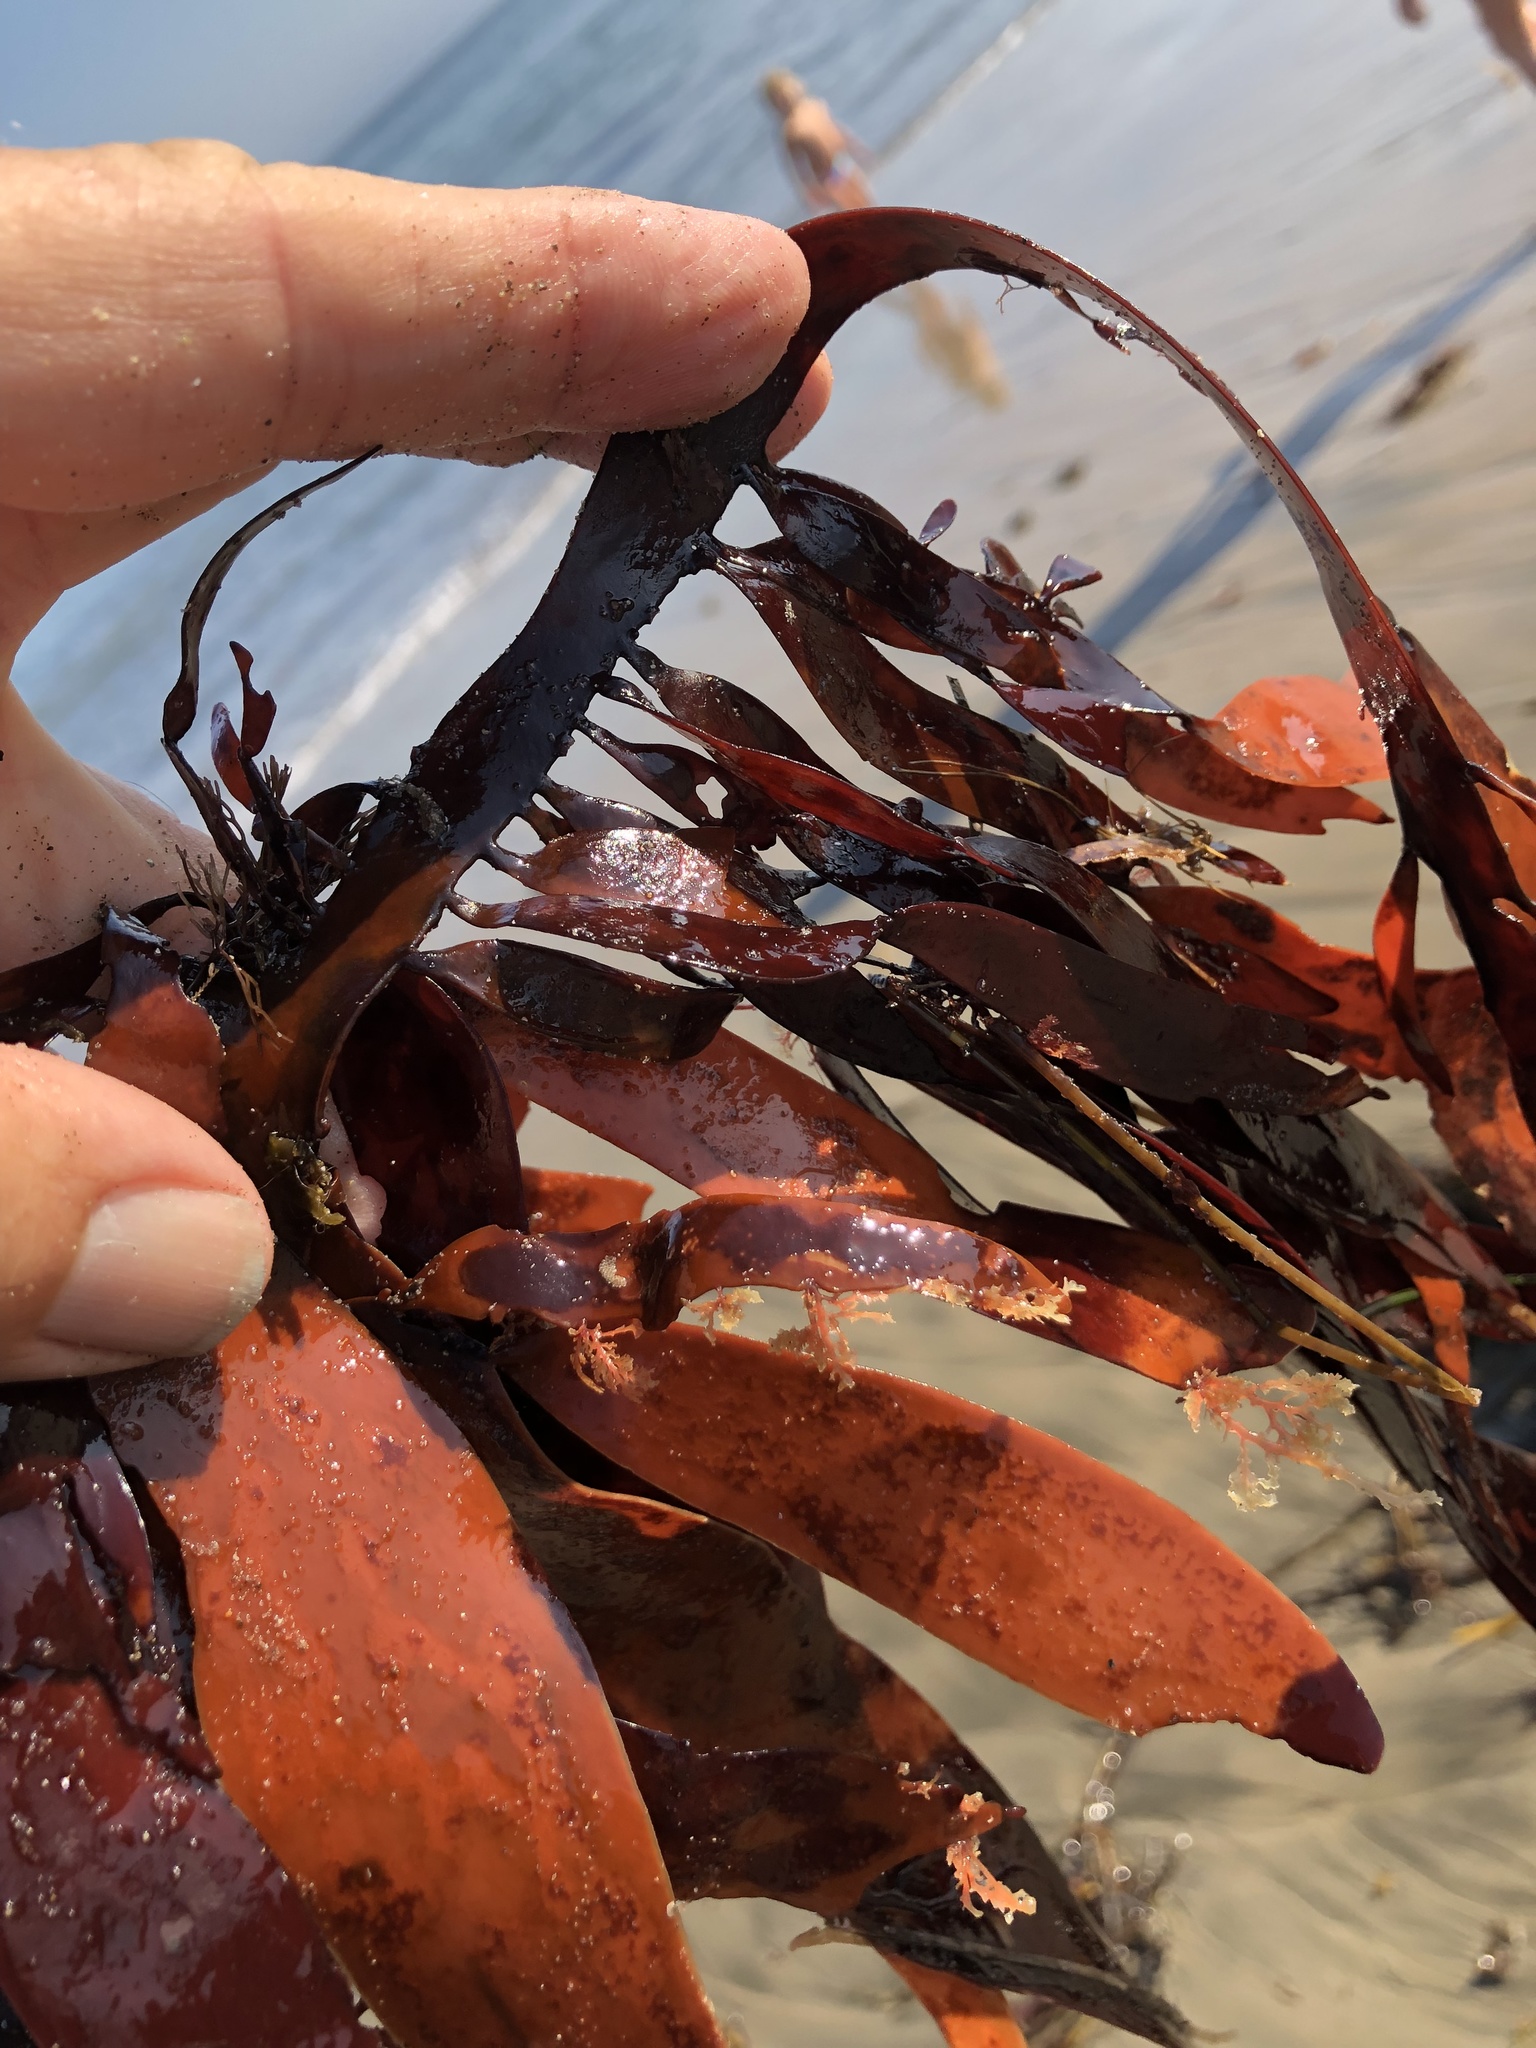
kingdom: Plantae
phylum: Rhodophyta
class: Florideophyceae
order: Halymeniales
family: Halymeniaceae
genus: Grateloupia
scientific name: Grateloupia Prionitis sternbergii
